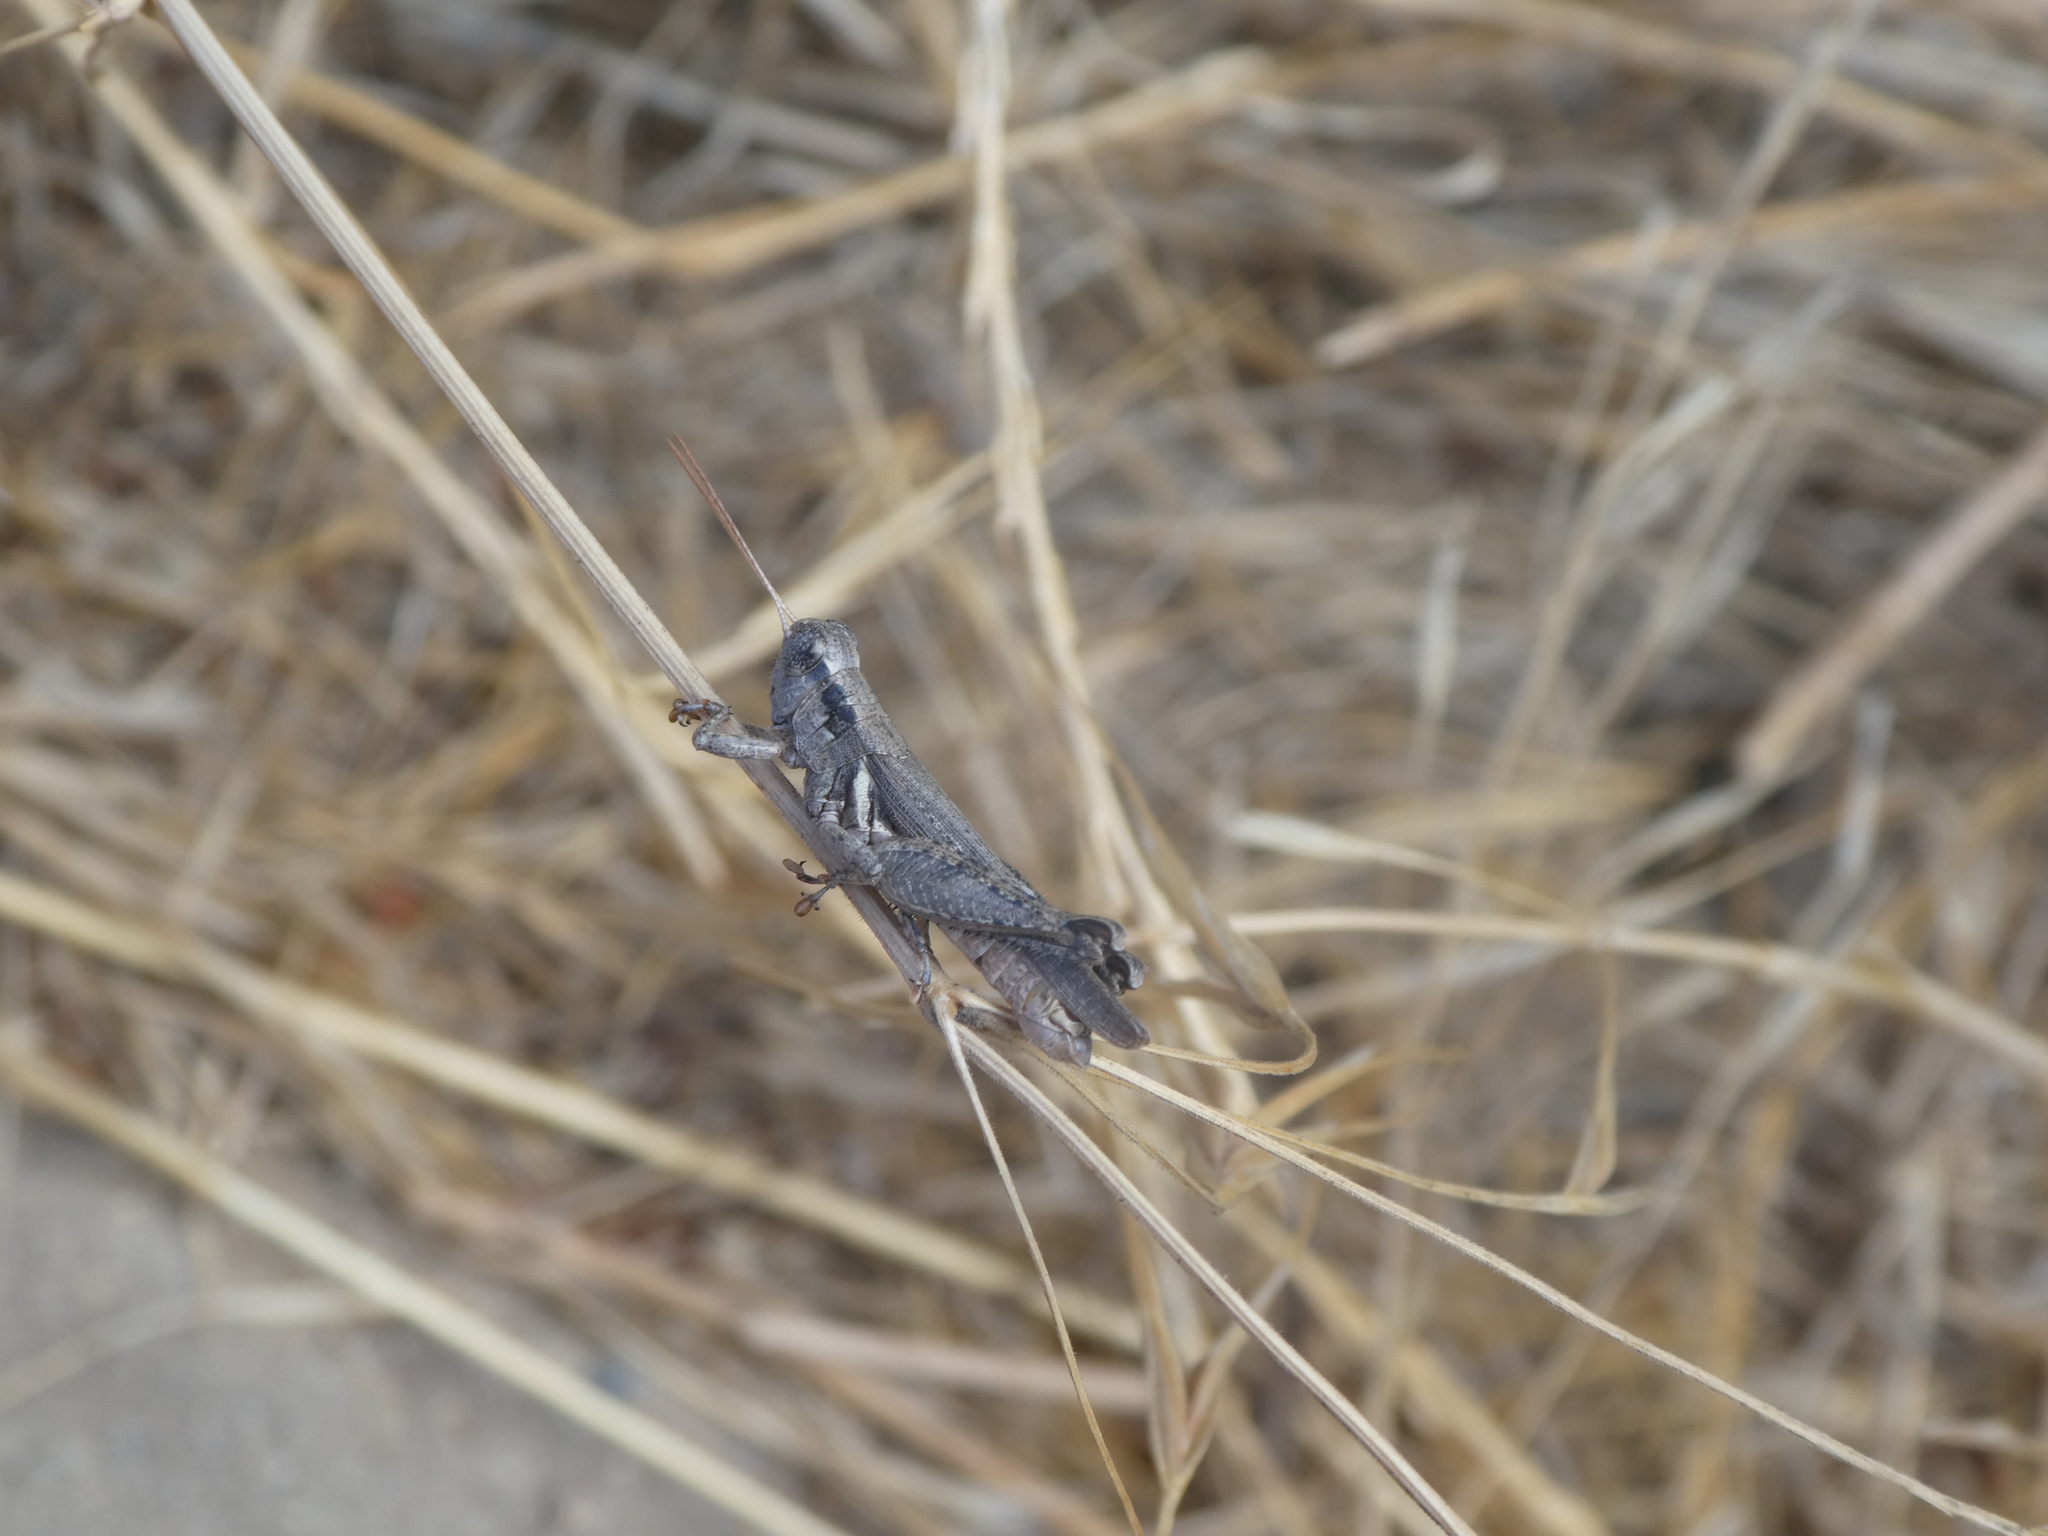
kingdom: Animalia
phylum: Arthropoda
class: Insecta
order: Orthoptera
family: Acrididae
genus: Melanoplus
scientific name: Melanoplus cinereus
